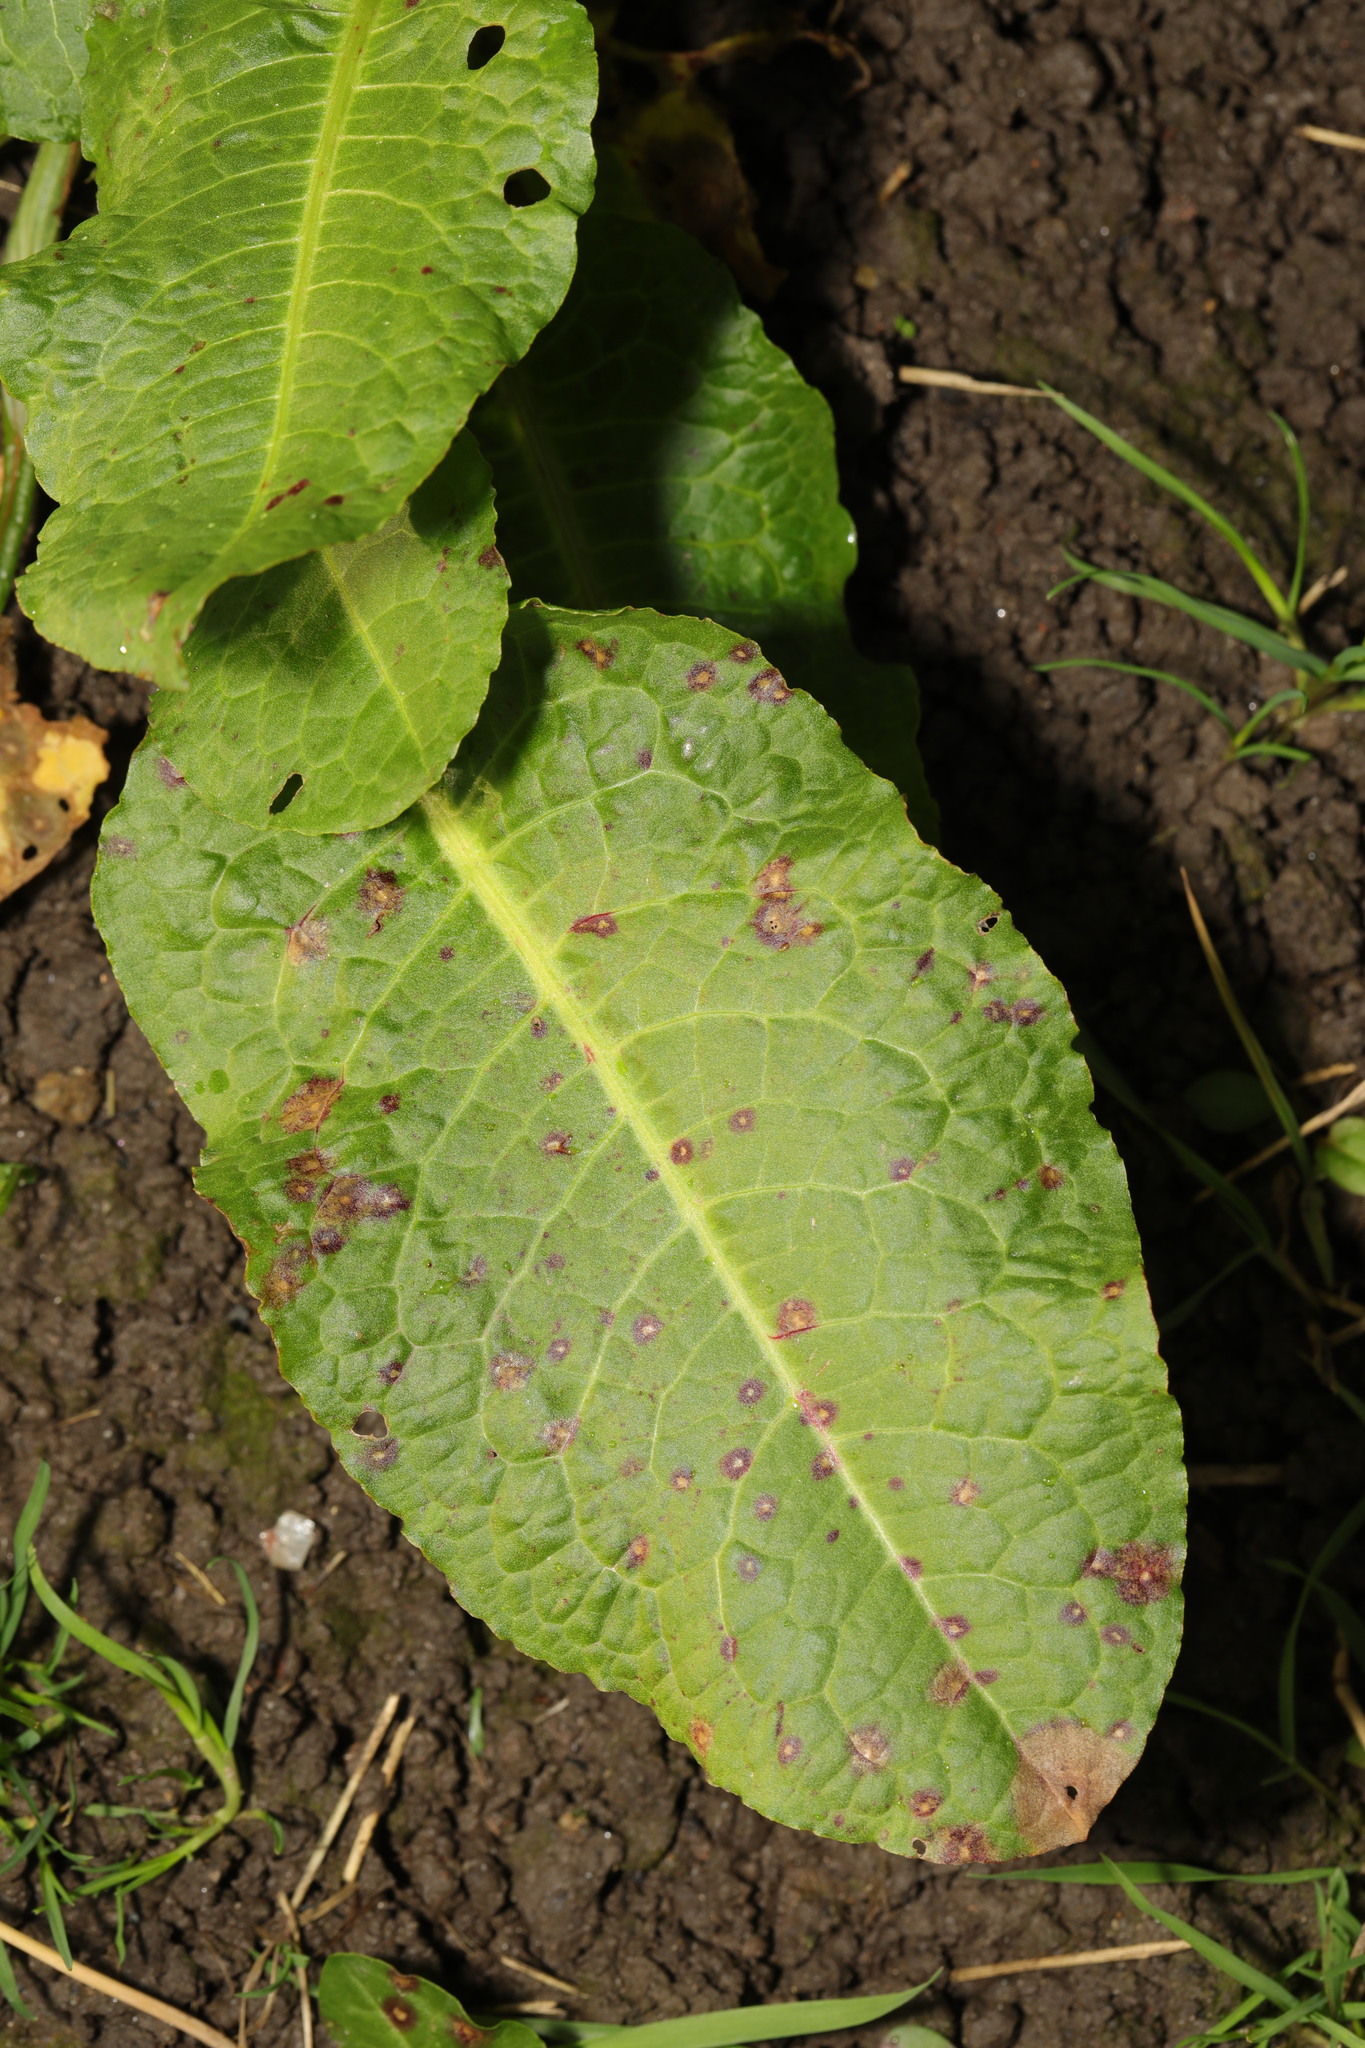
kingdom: Plantae
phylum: Tracheophyta
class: Magnoliopsida
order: Caryophyllales
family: Polygonaceae
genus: Rumex
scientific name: Rumex obtusifolius
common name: Bitter dock
